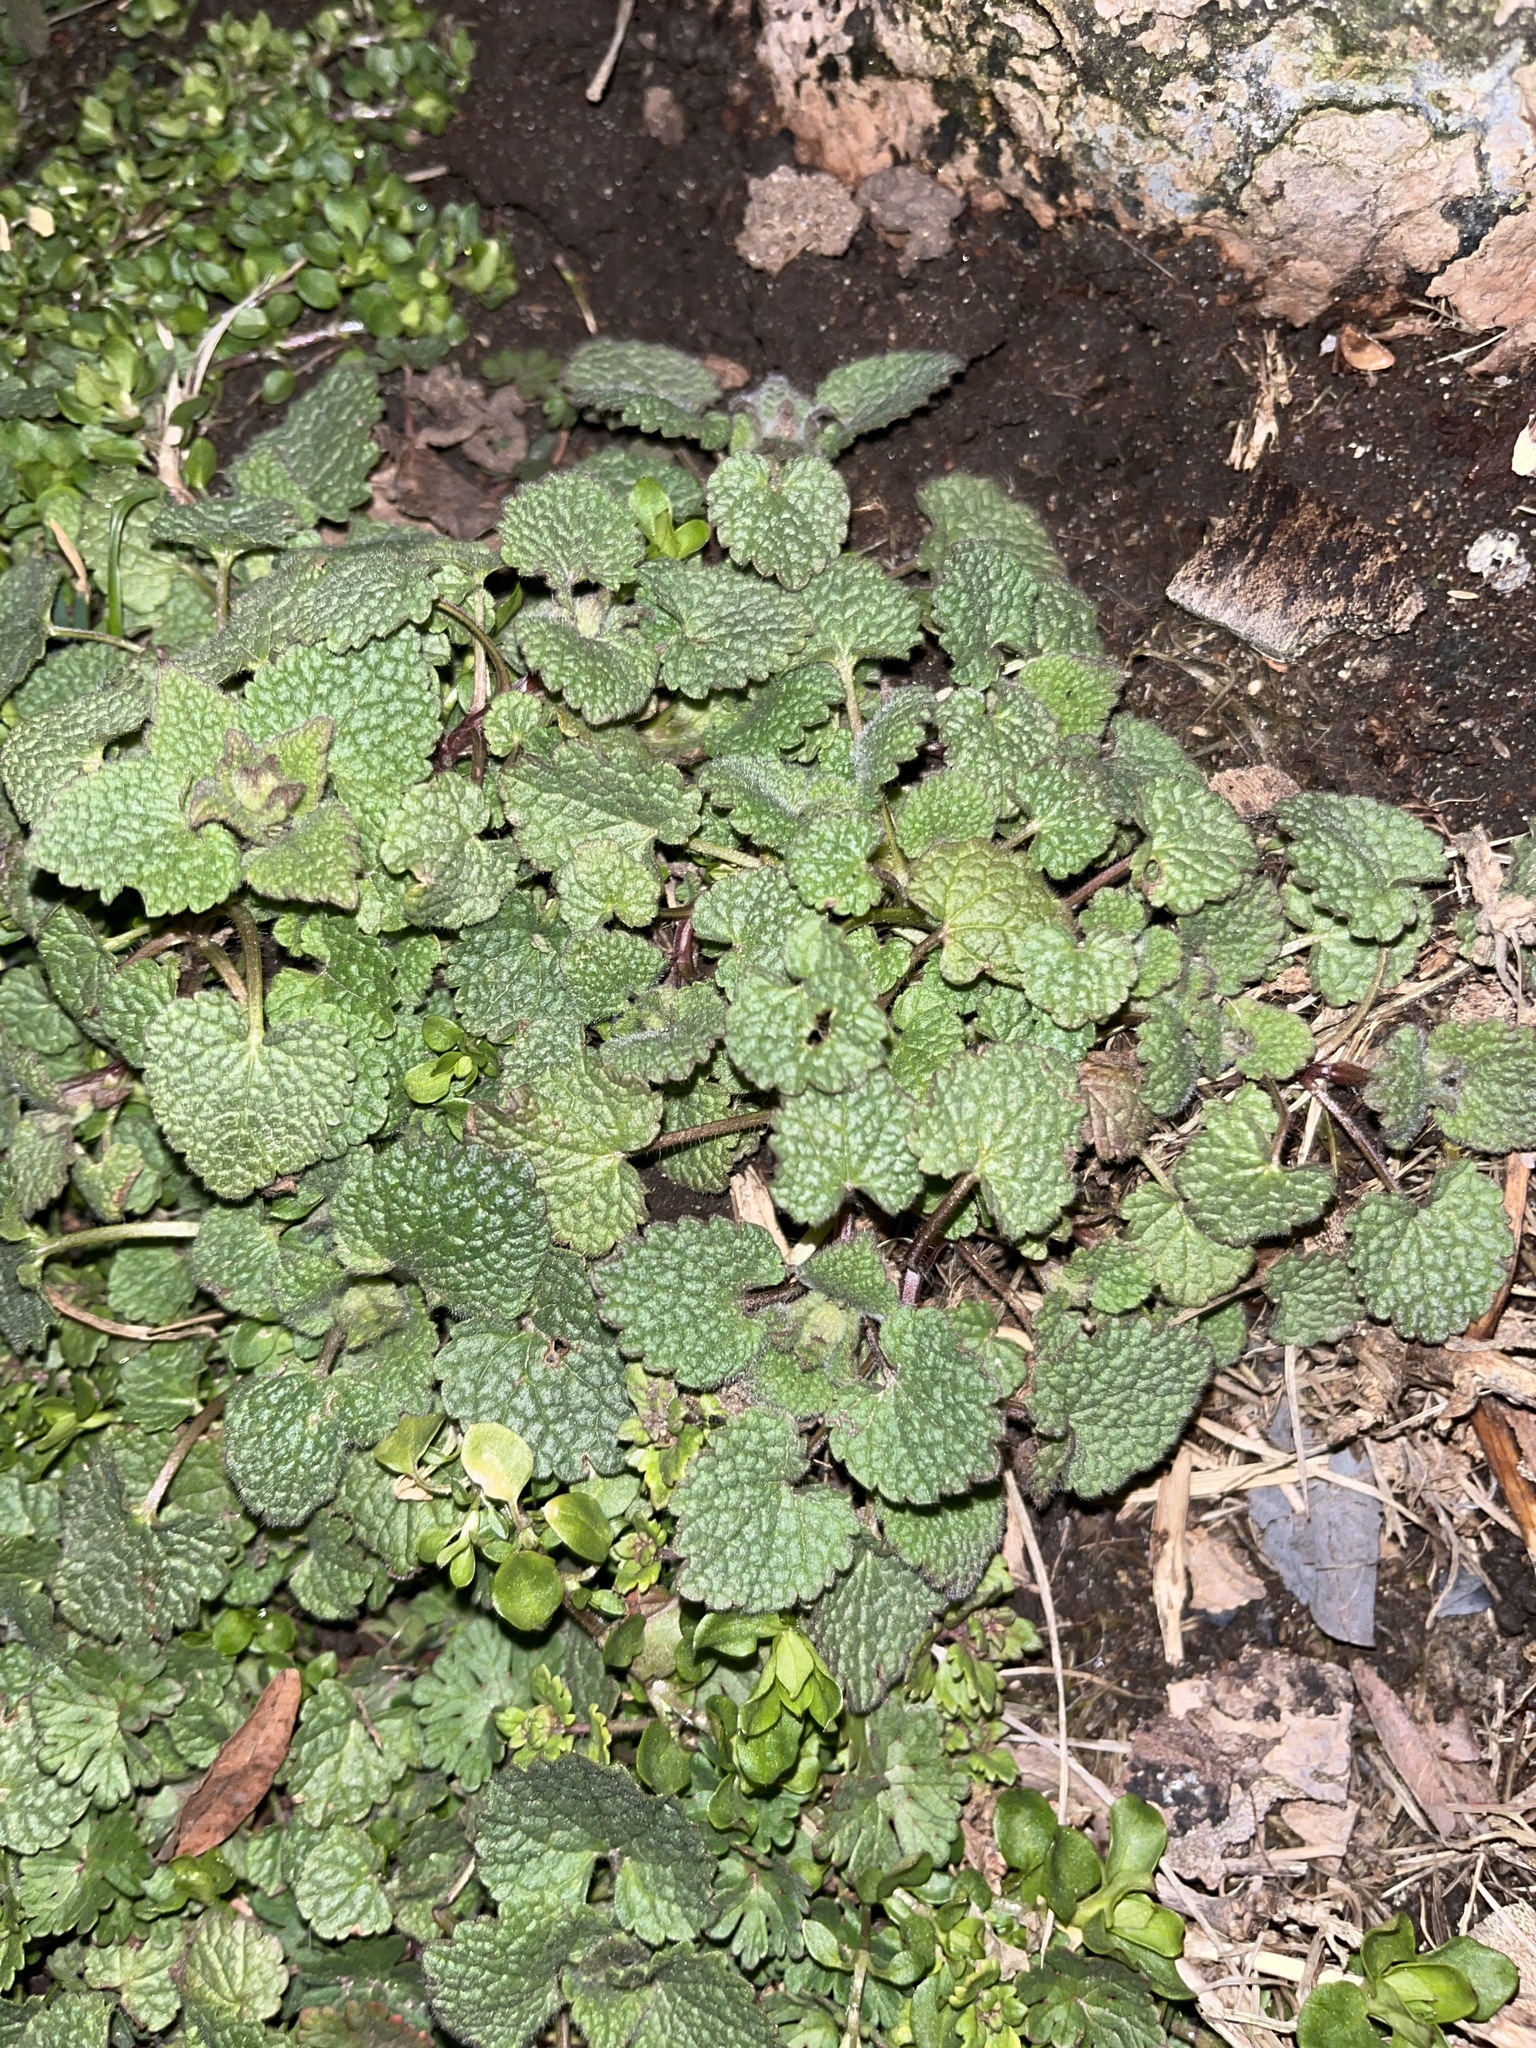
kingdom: Plantae
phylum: Tracheophyta
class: Magnoliopsida
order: Lamiales
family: Lamiaceae
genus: Lamium
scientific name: Lamium purpureum
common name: Red dead-nettle
